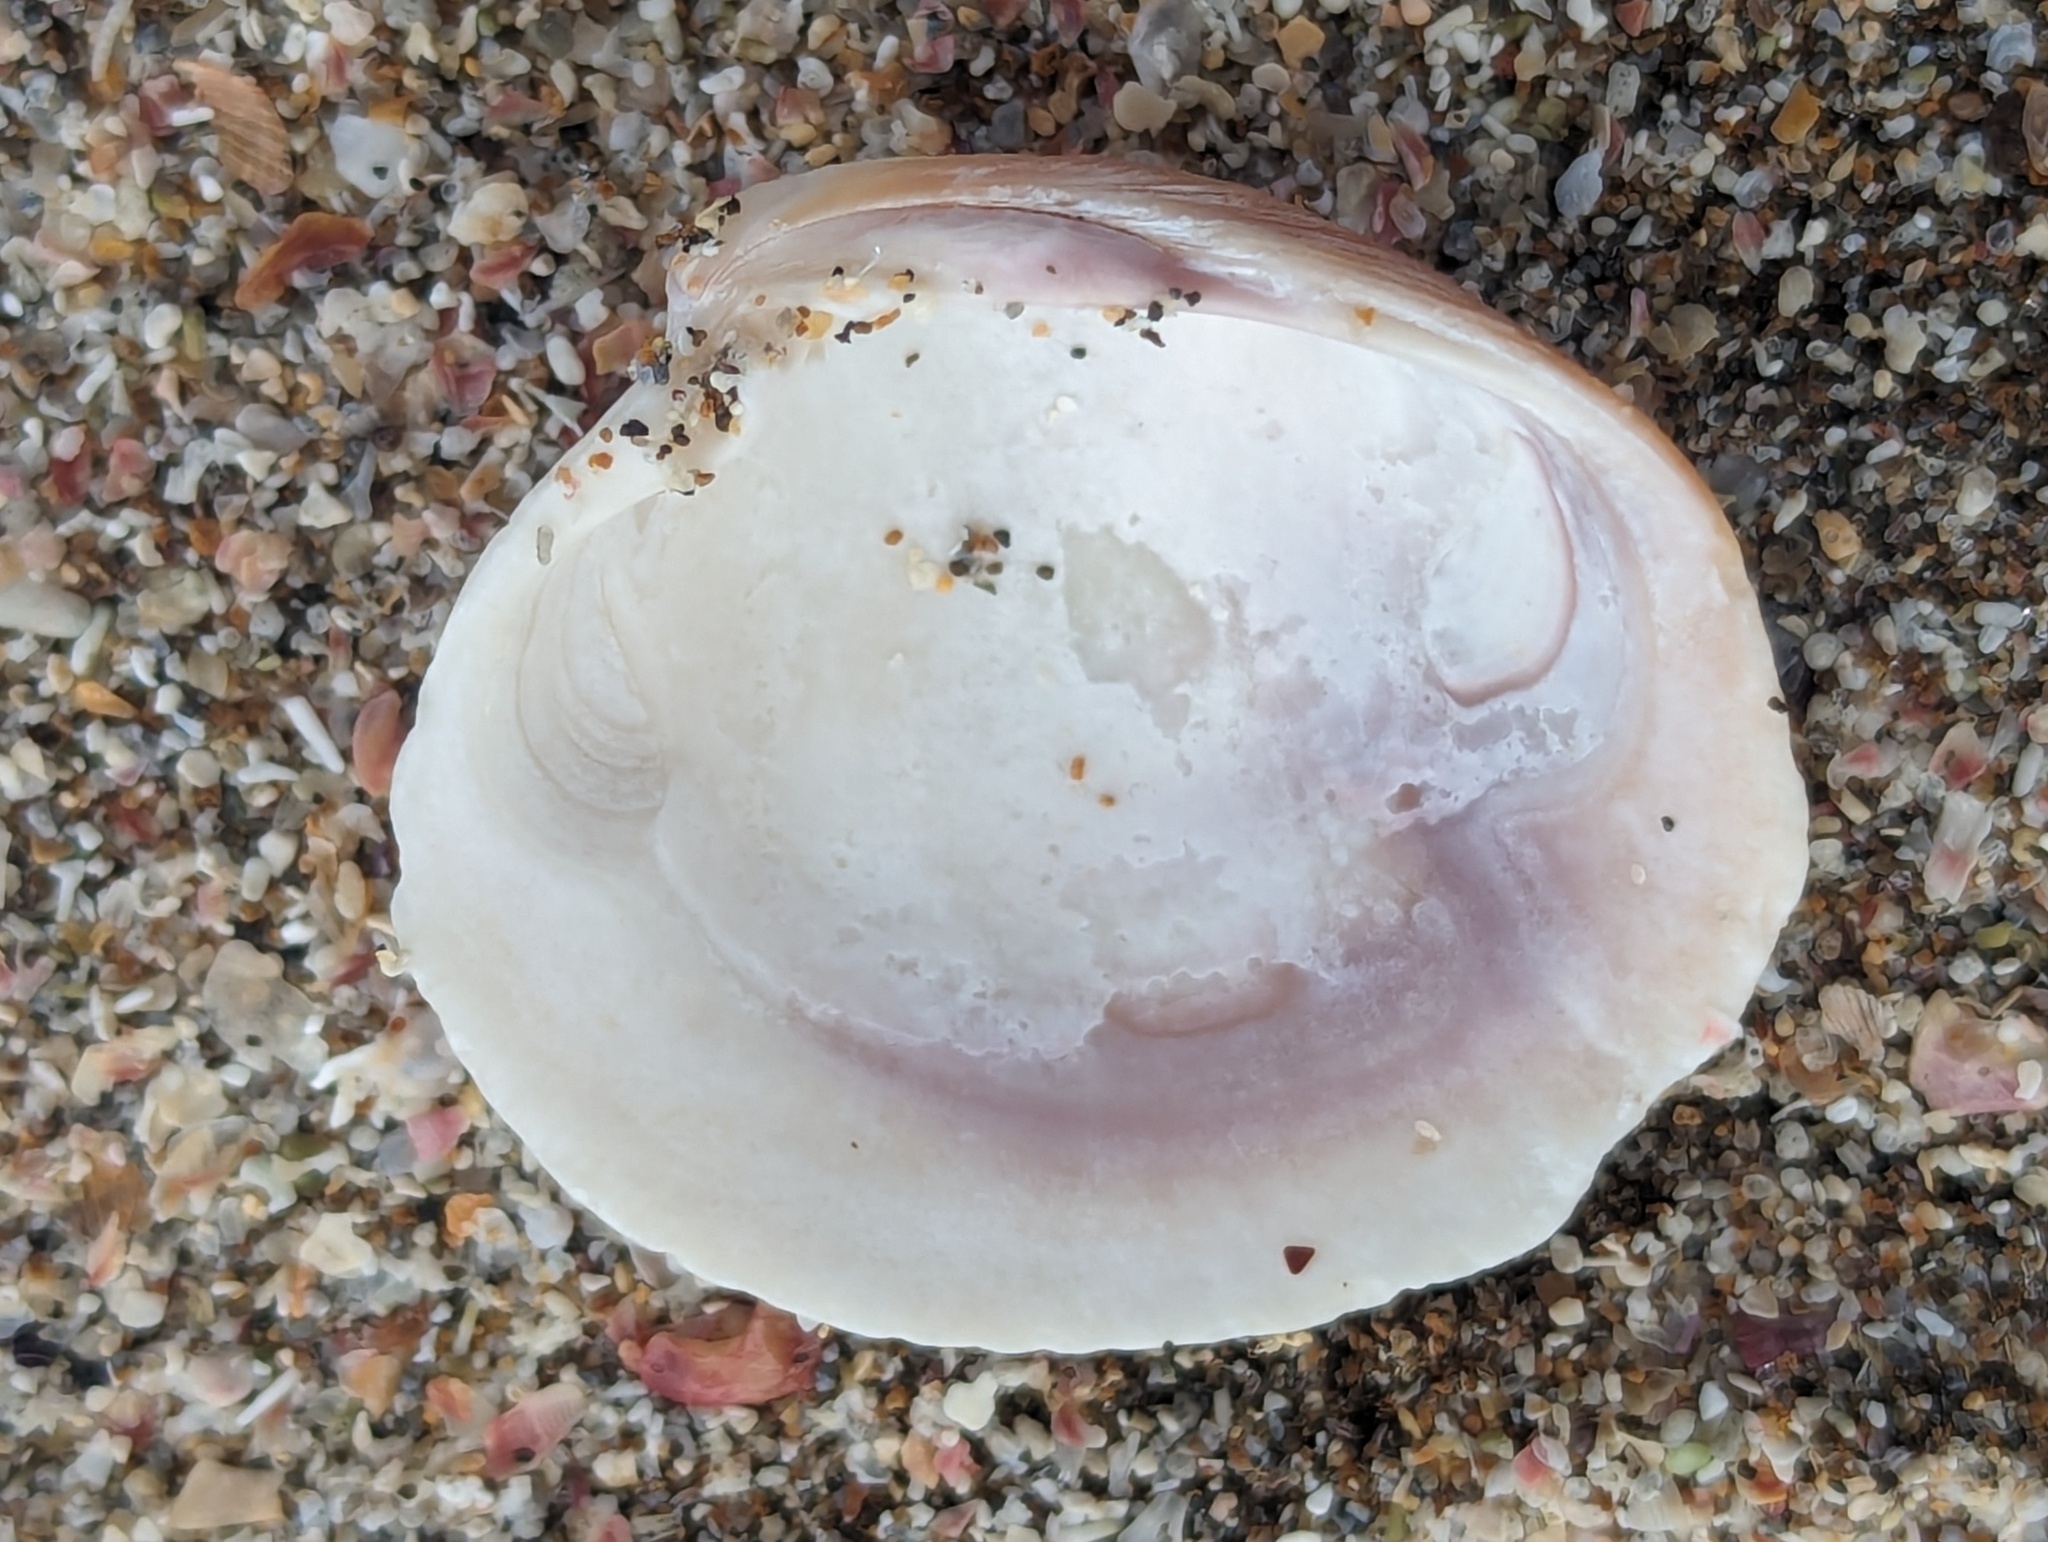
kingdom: Animalia
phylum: Mollusca
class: Bivalvia
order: Venerida
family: Veneridae
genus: Austrovenus
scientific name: Austrovenus stutchburyi
